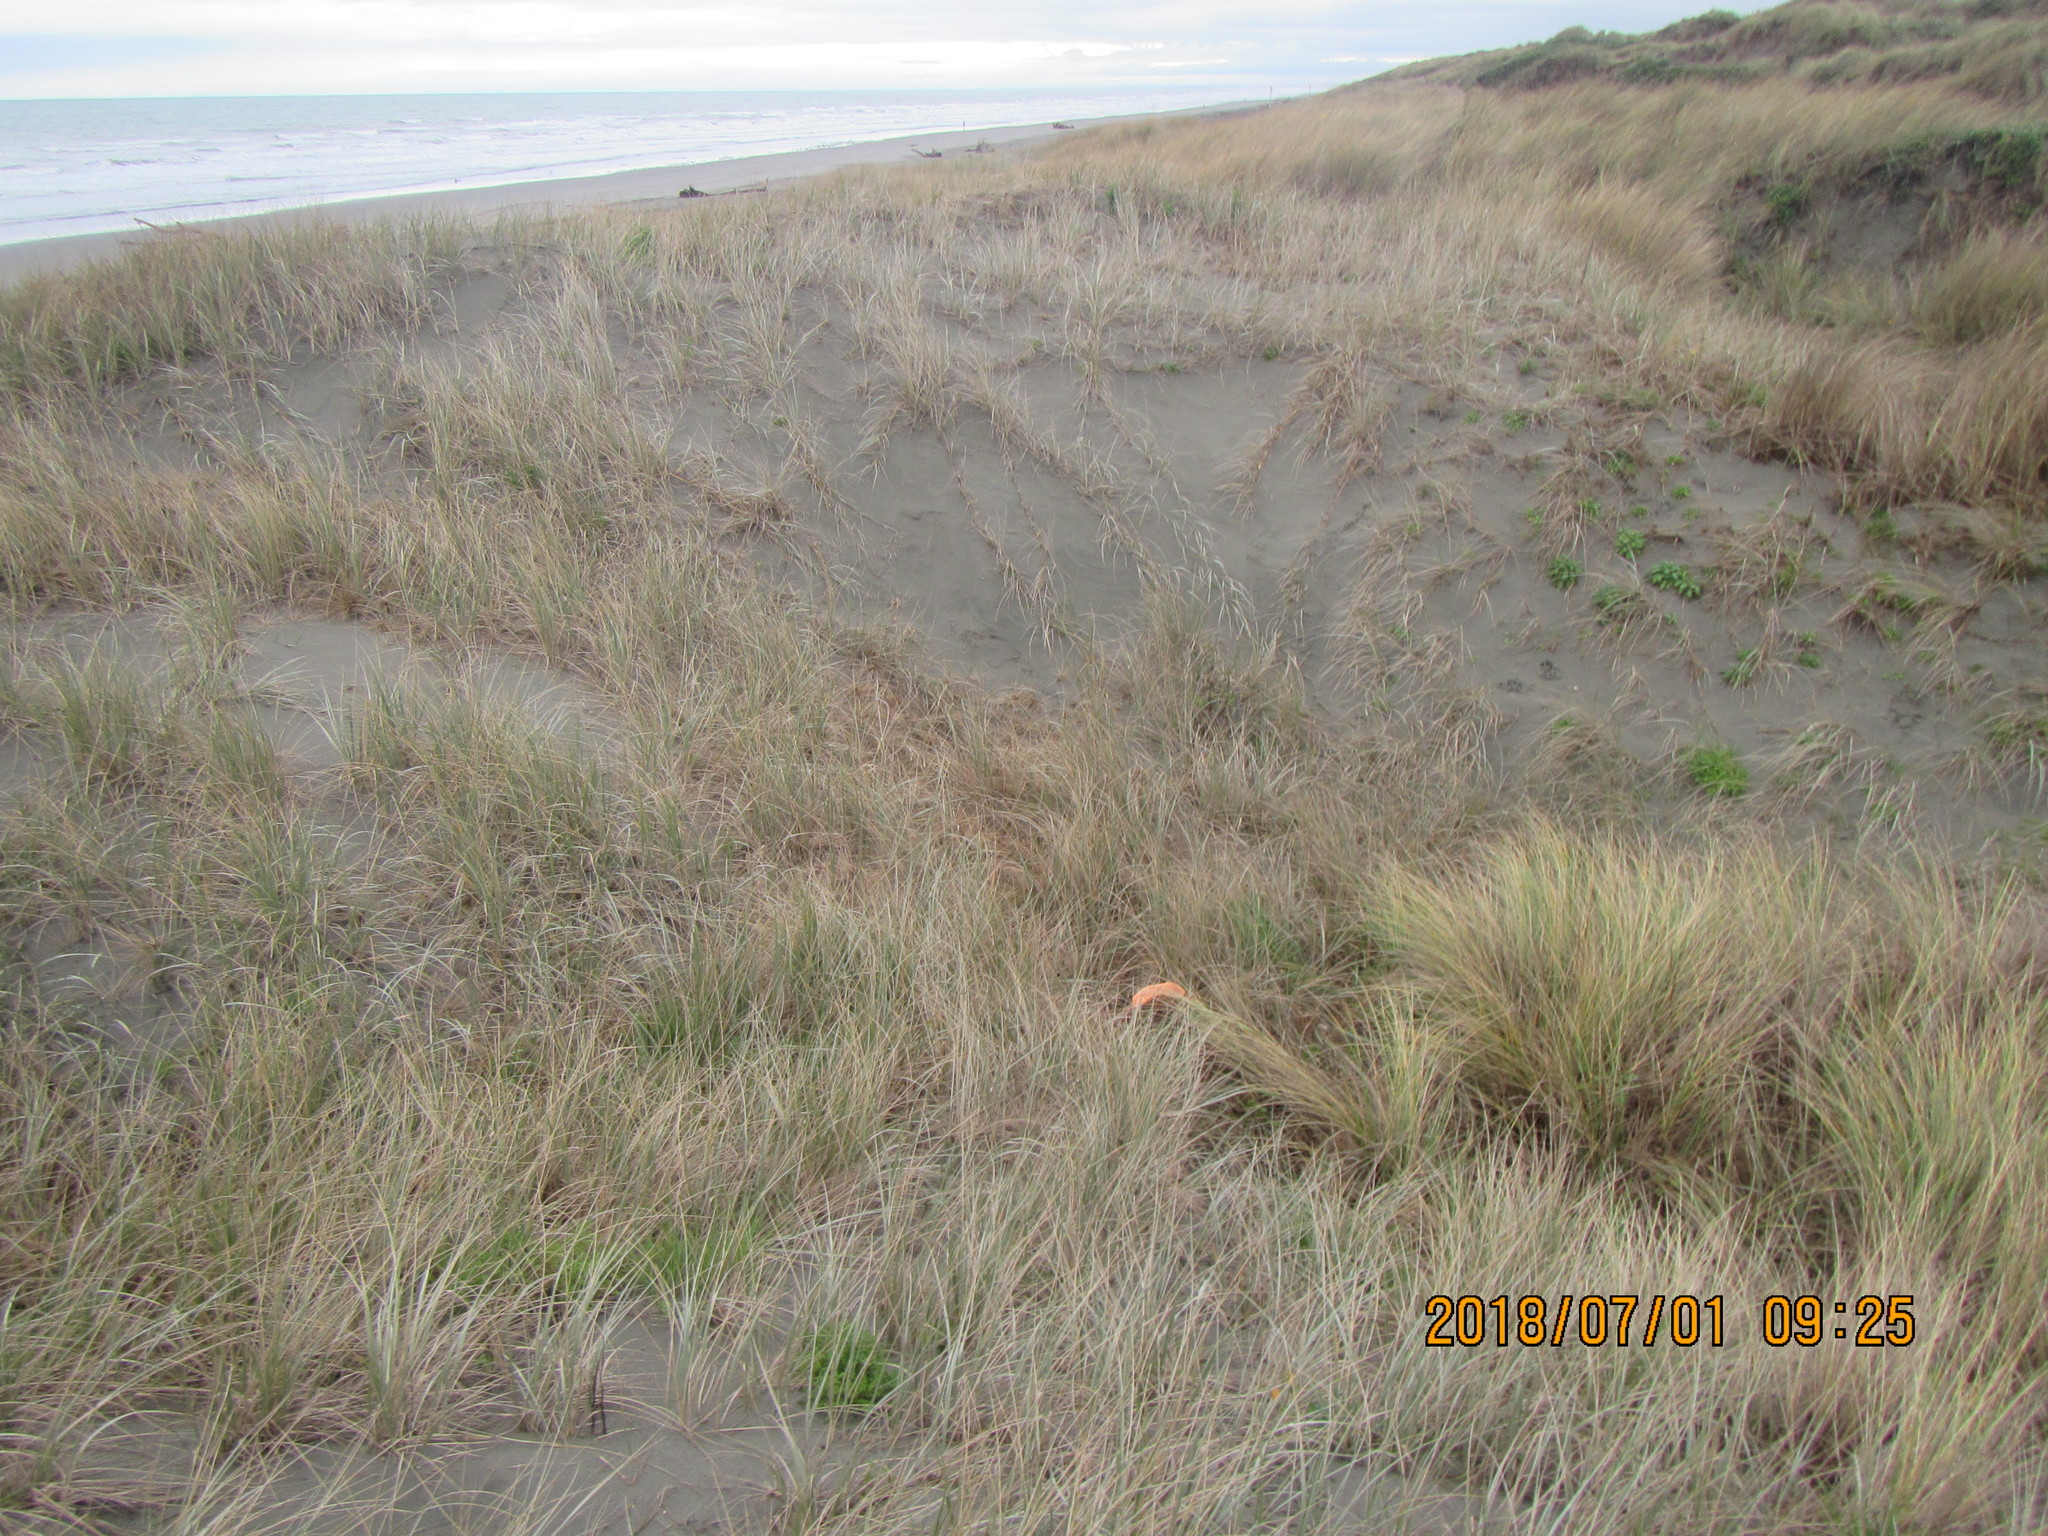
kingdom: Fungi
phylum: Basidiomycota
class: Agaricomycetes
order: Phallales
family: Phallaceae
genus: Ileodictyon
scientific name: Ileodictyon cibarium
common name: Basket fungus
